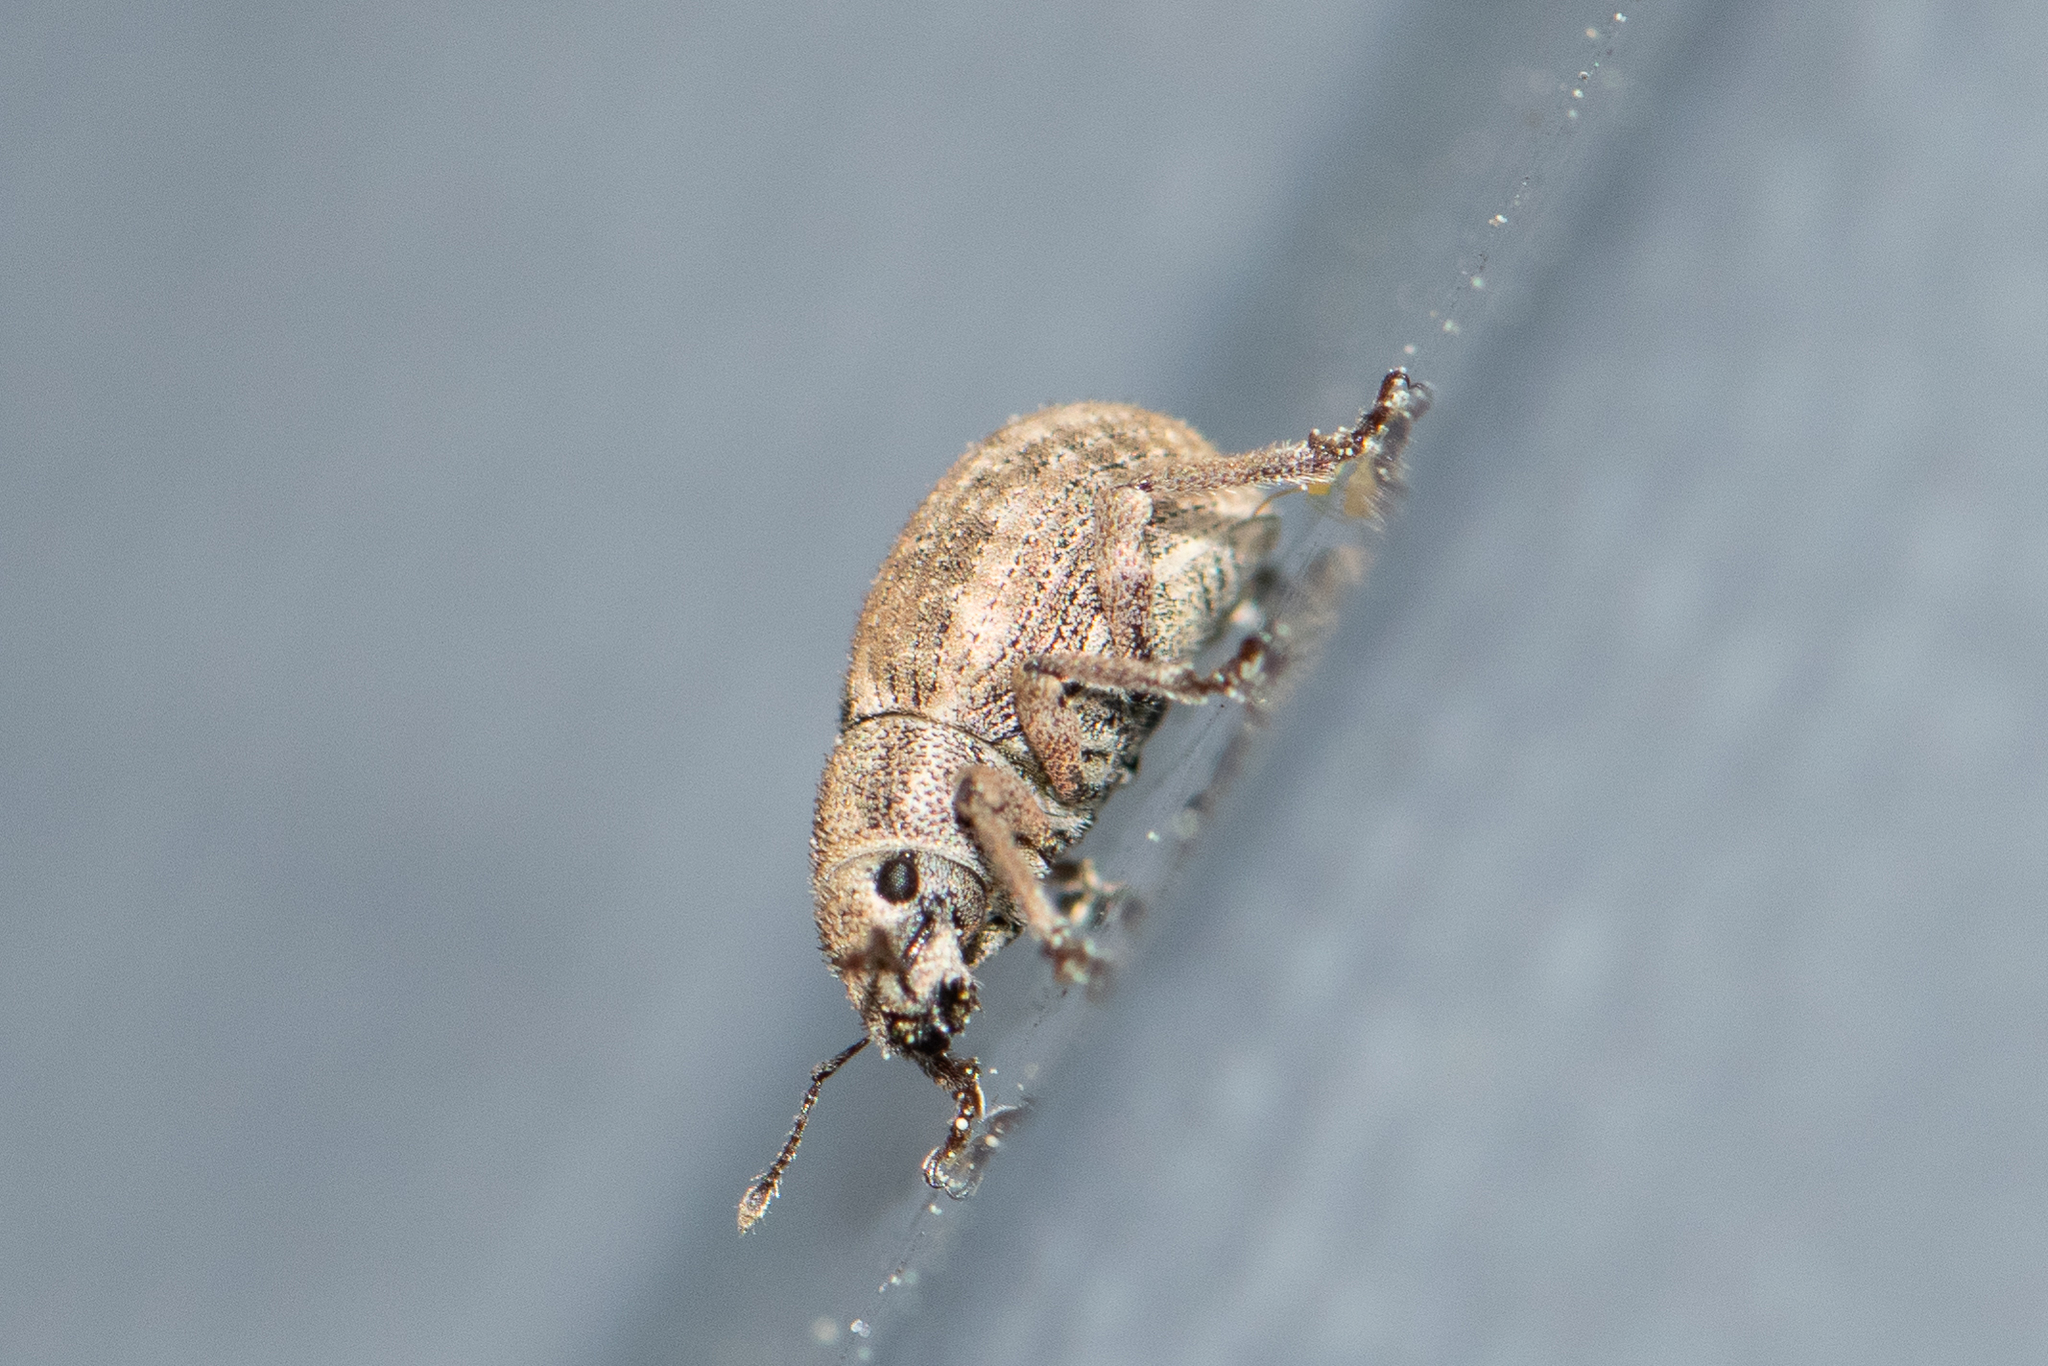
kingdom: Animalia
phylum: Arthropoda
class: Insecta
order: Coleoptera
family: Curculionidae
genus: Strophosoma
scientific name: Strophosoma capitatum
